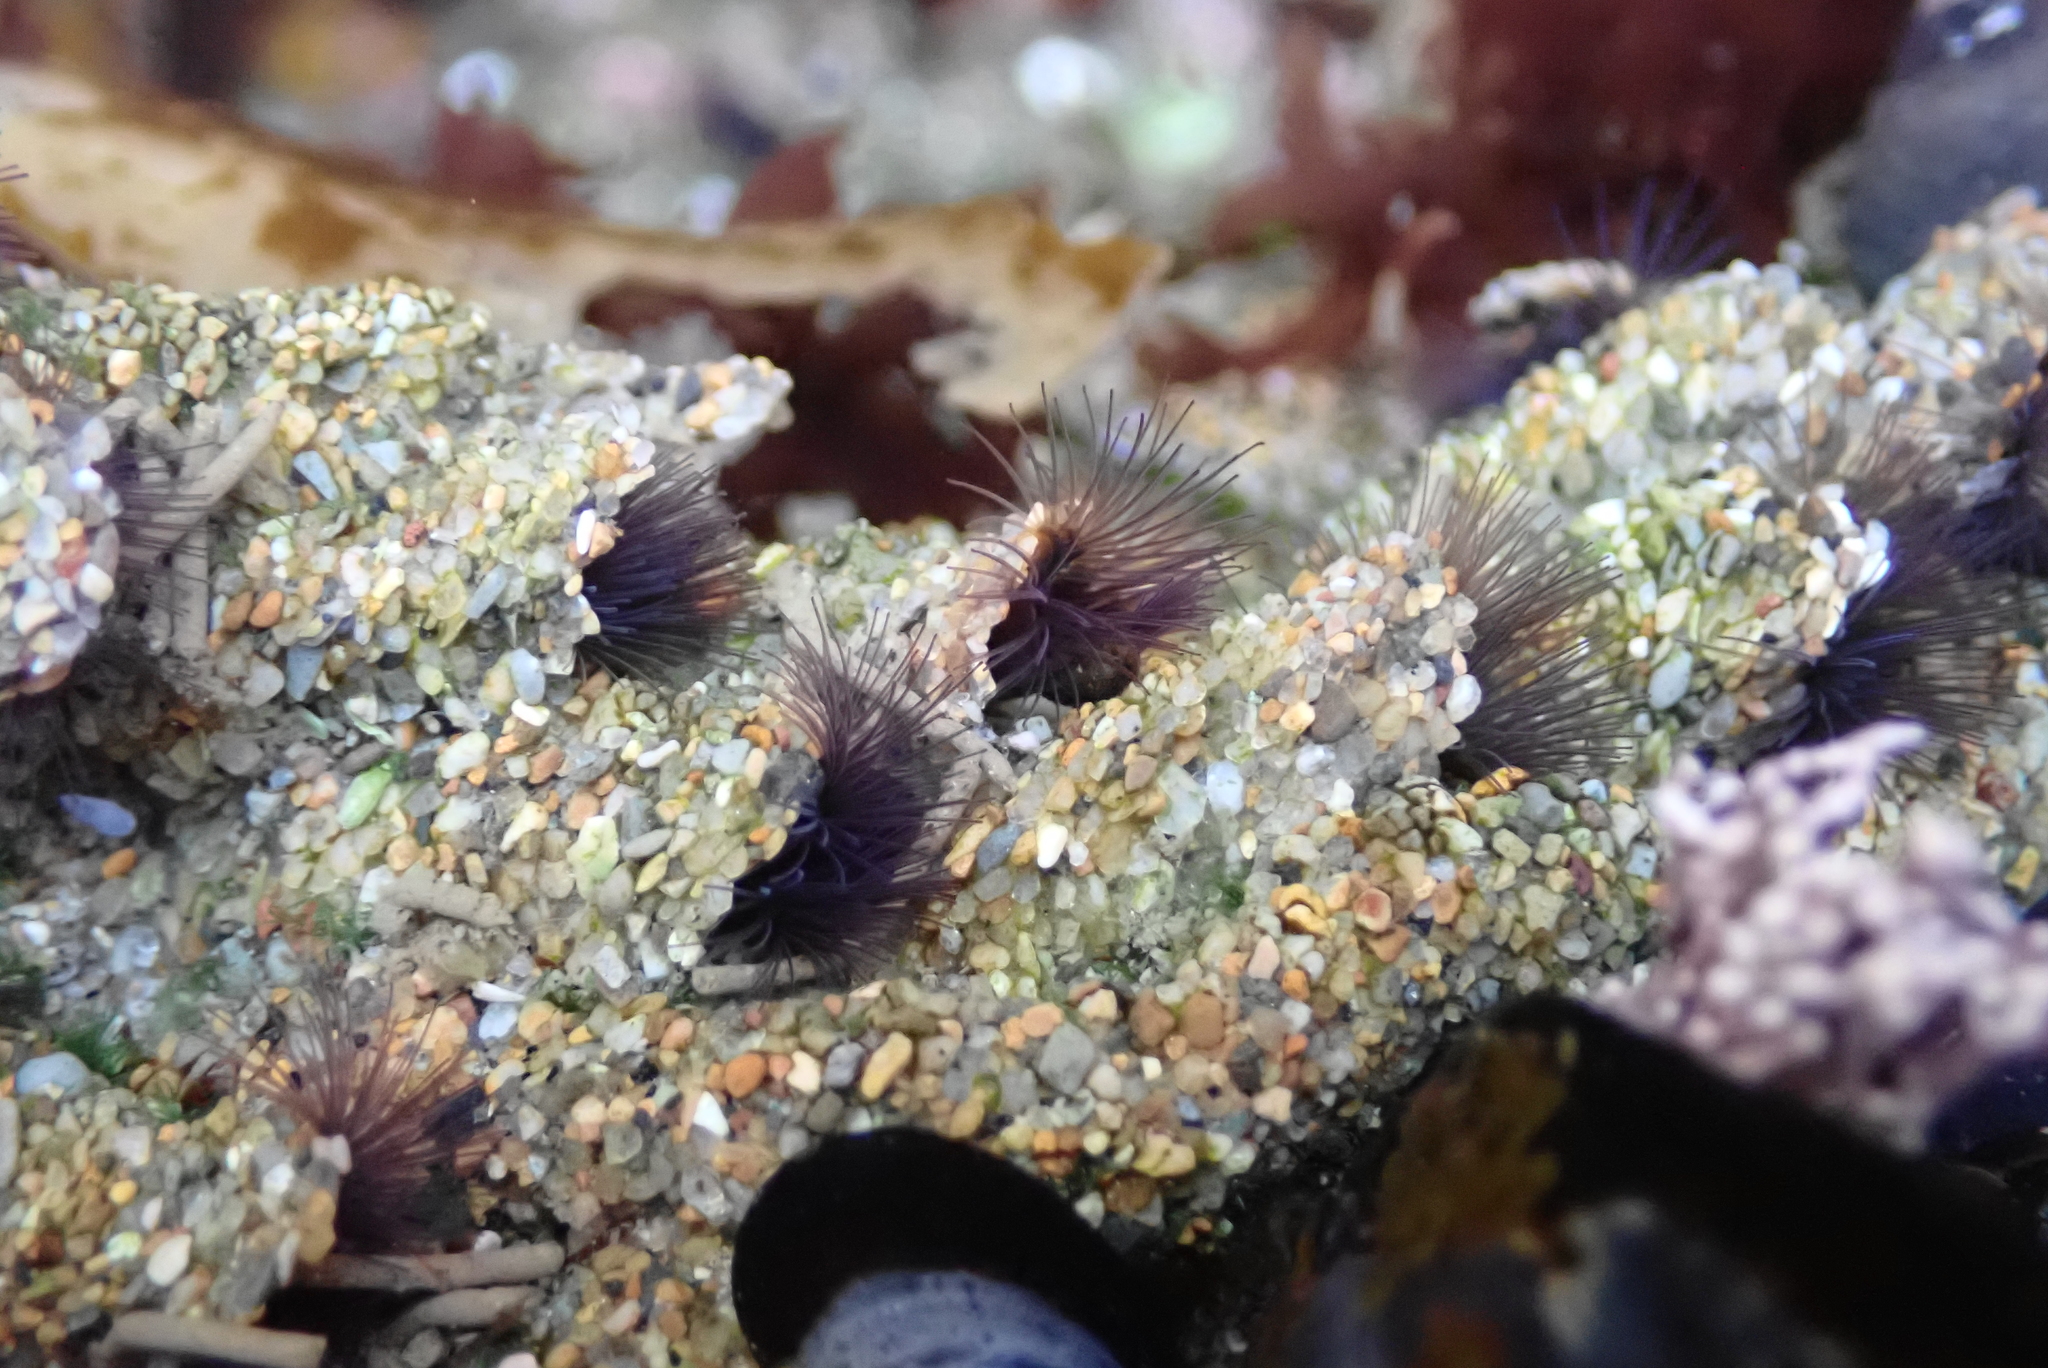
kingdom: Animalia
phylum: Annelida
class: Polychaeta
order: Sabellida
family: Sabellariidae
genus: Phragmatopoma
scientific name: Phragmatopoma californica
